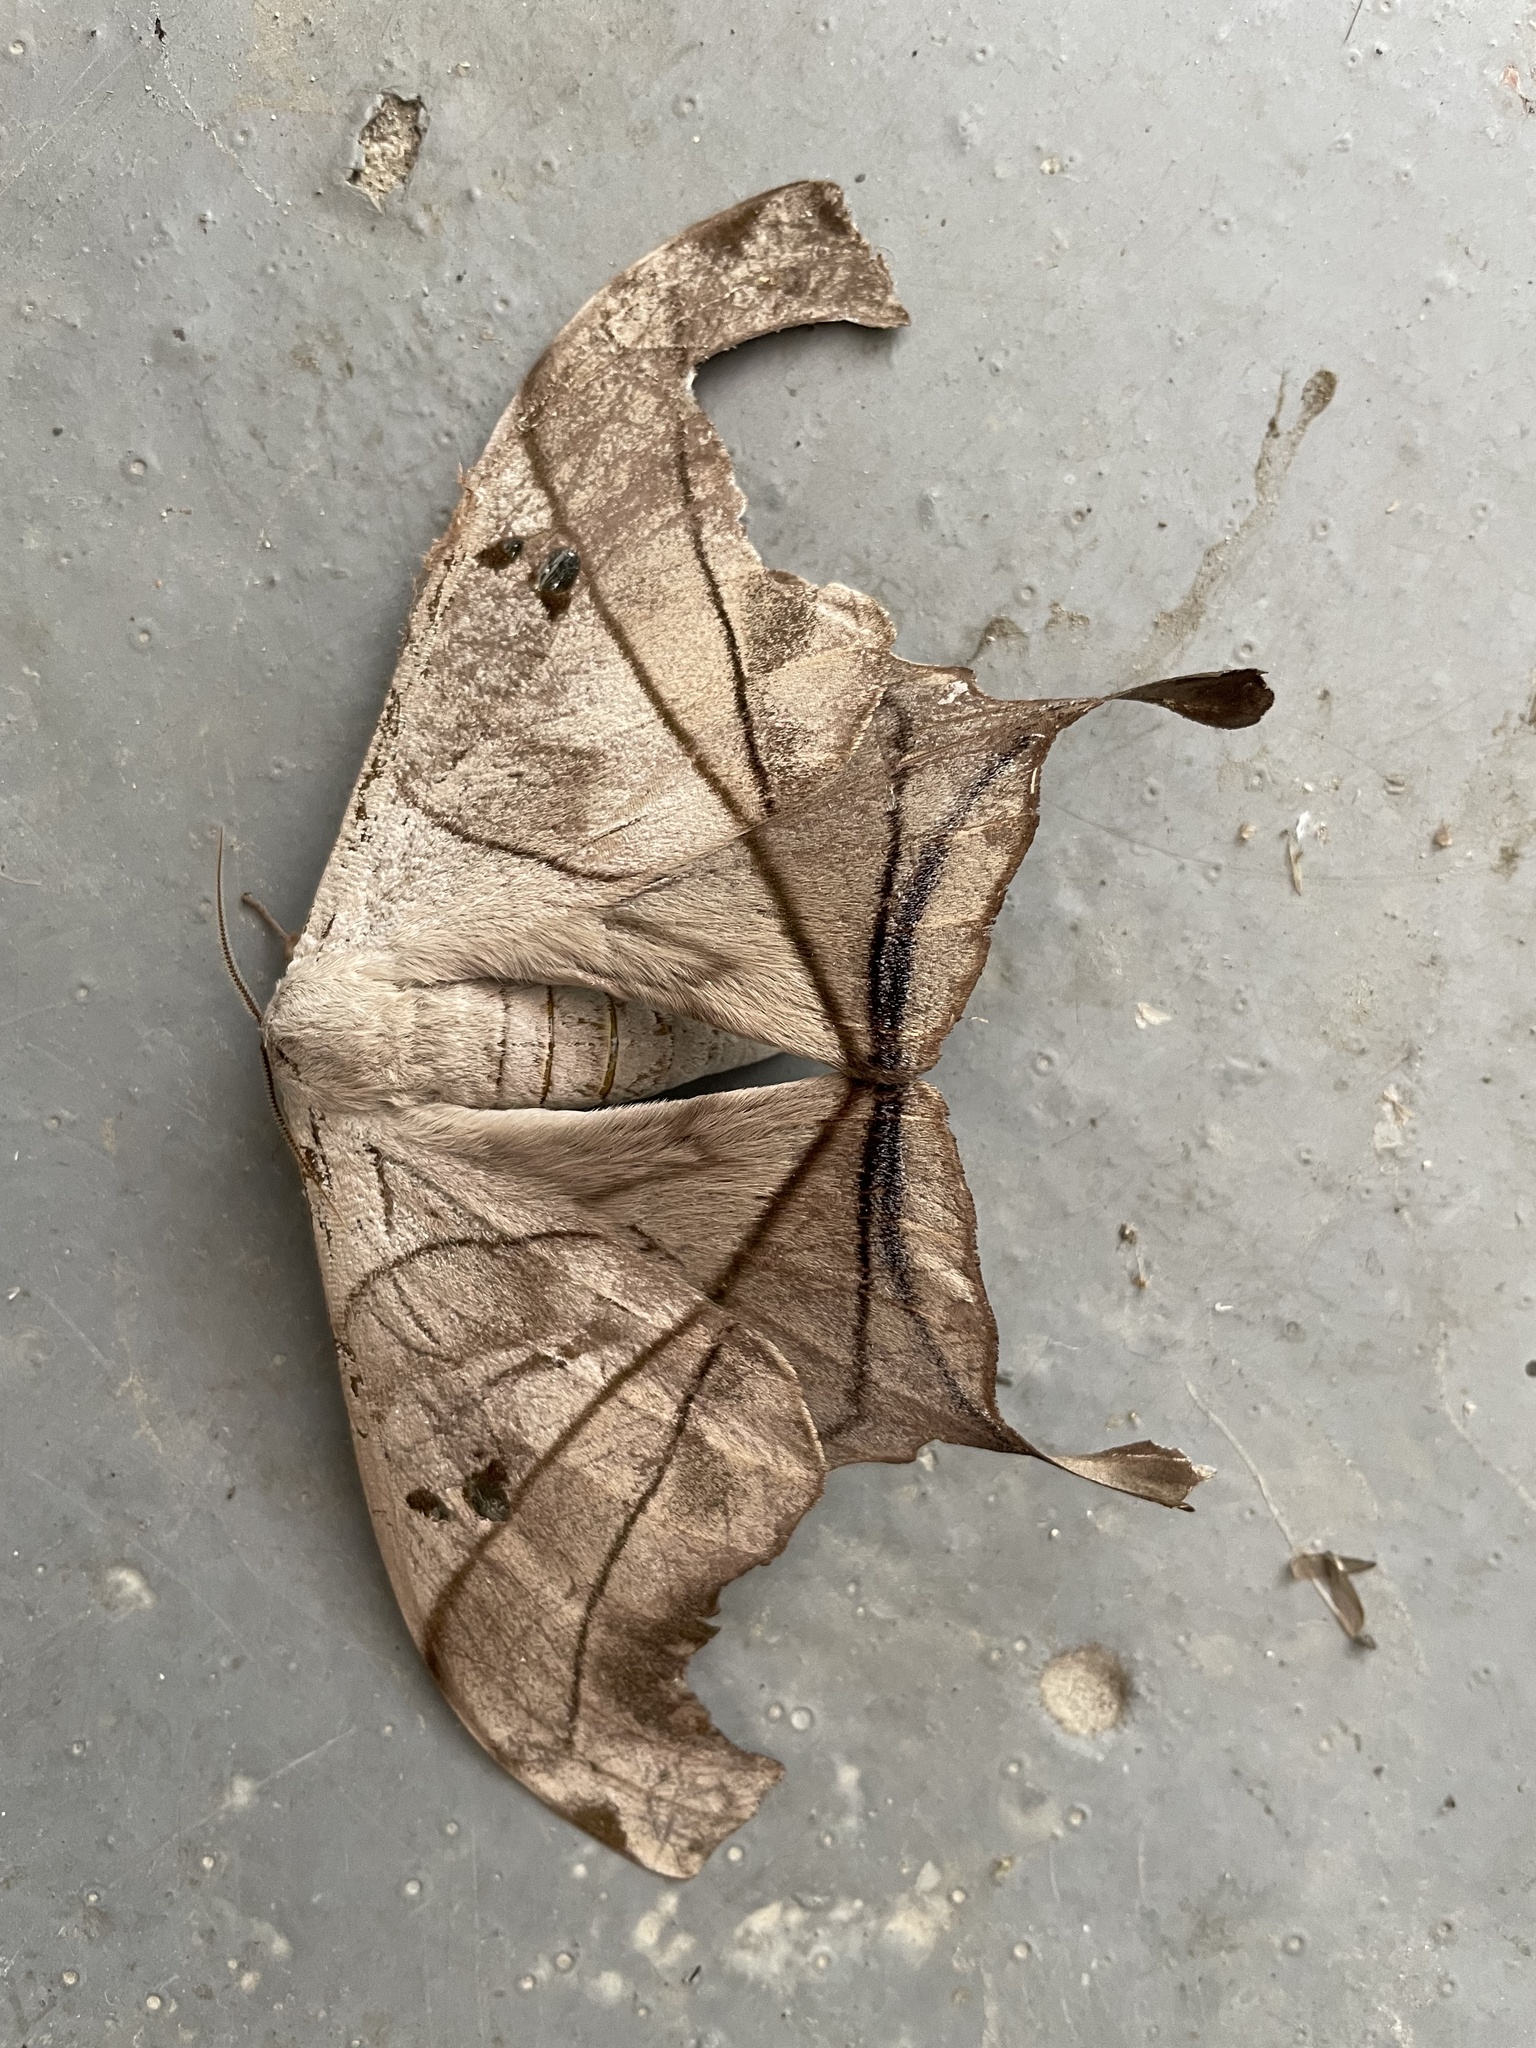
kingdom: Animalia
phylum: Arthropoda
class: Insecta
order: Lepidoptera
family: Saturniidae
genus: Dysdaemonia
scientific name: Dysdaemonia boreas
